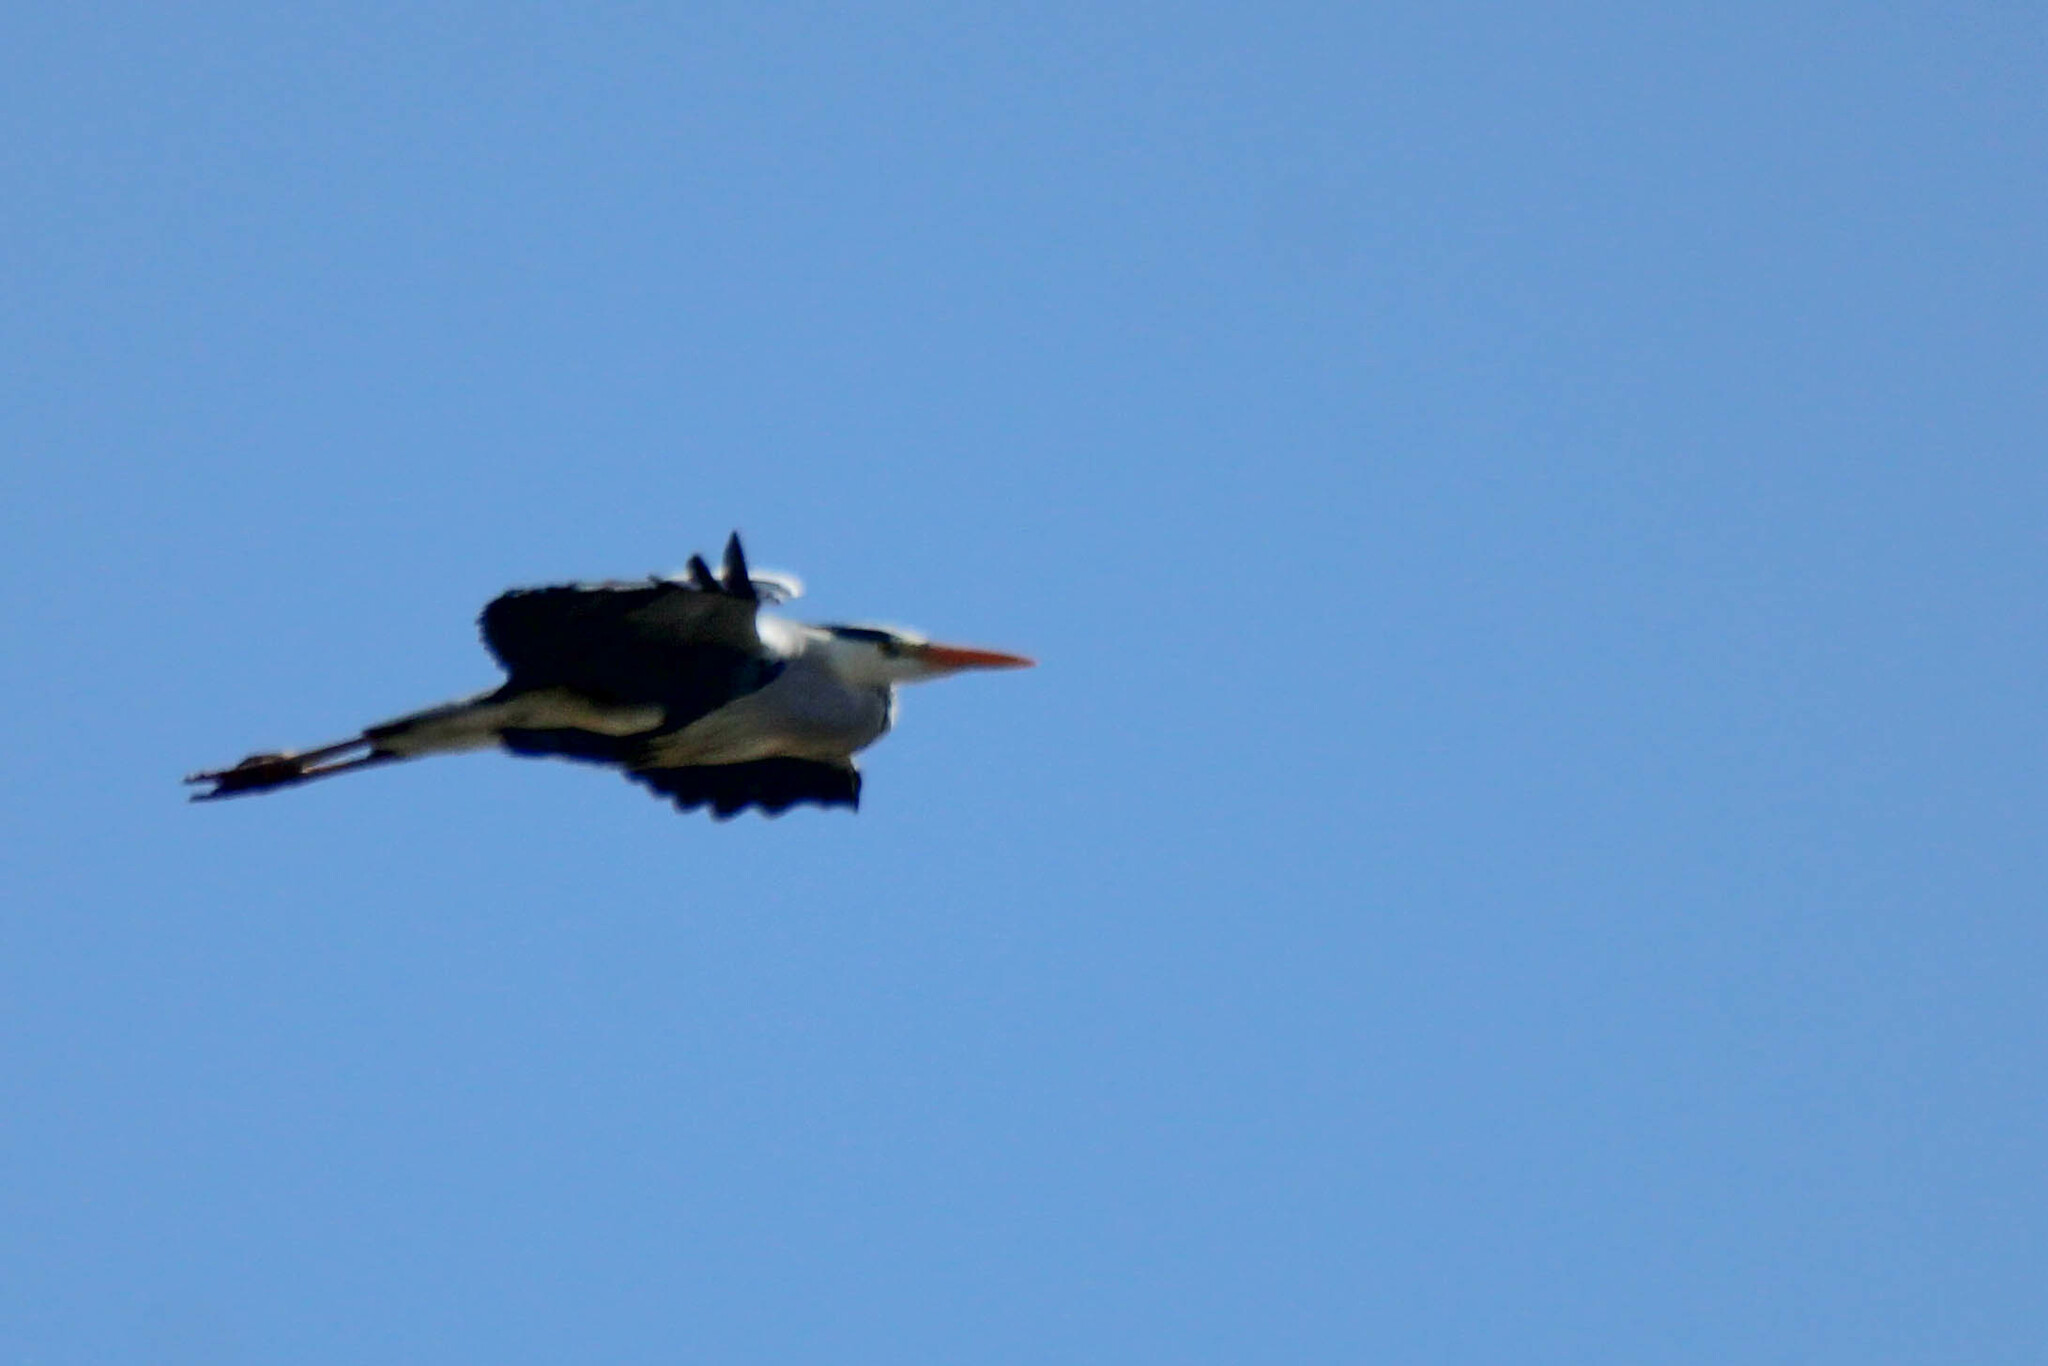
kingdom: Animalia
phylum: Chordata
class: Aves
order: Pelecaniformes
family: Ardeidae
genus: Ardea
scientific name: Ardea cinerea
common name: Grey heron
